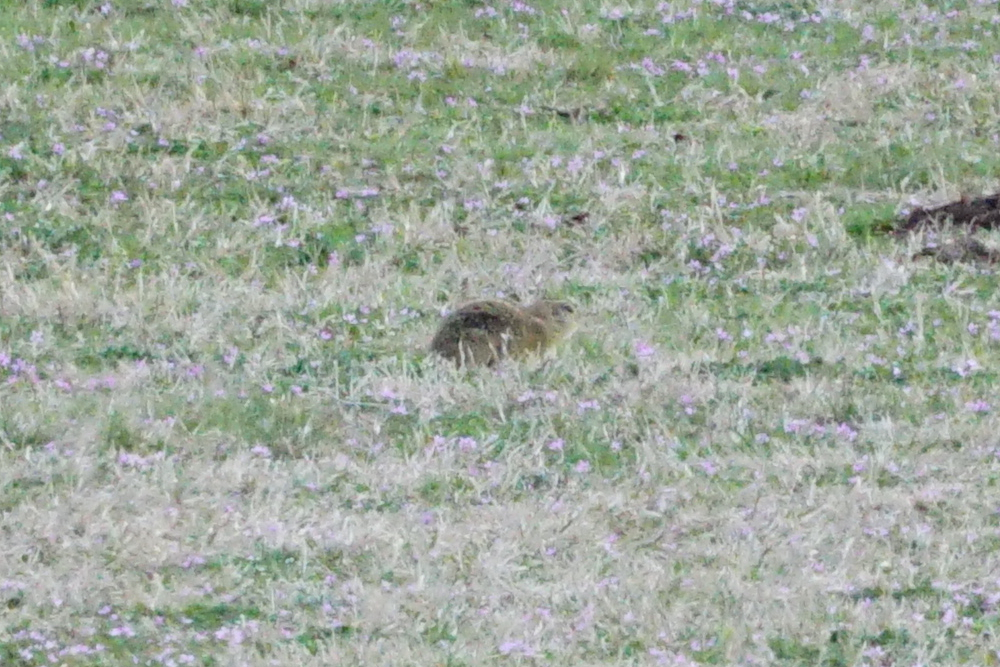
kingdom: Animalia
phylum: Chordata
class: Mammalia
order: Rodentia
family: Sciuridae
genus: Spermophilus
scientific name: Spermophilus citellus
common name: European ground squirrel
